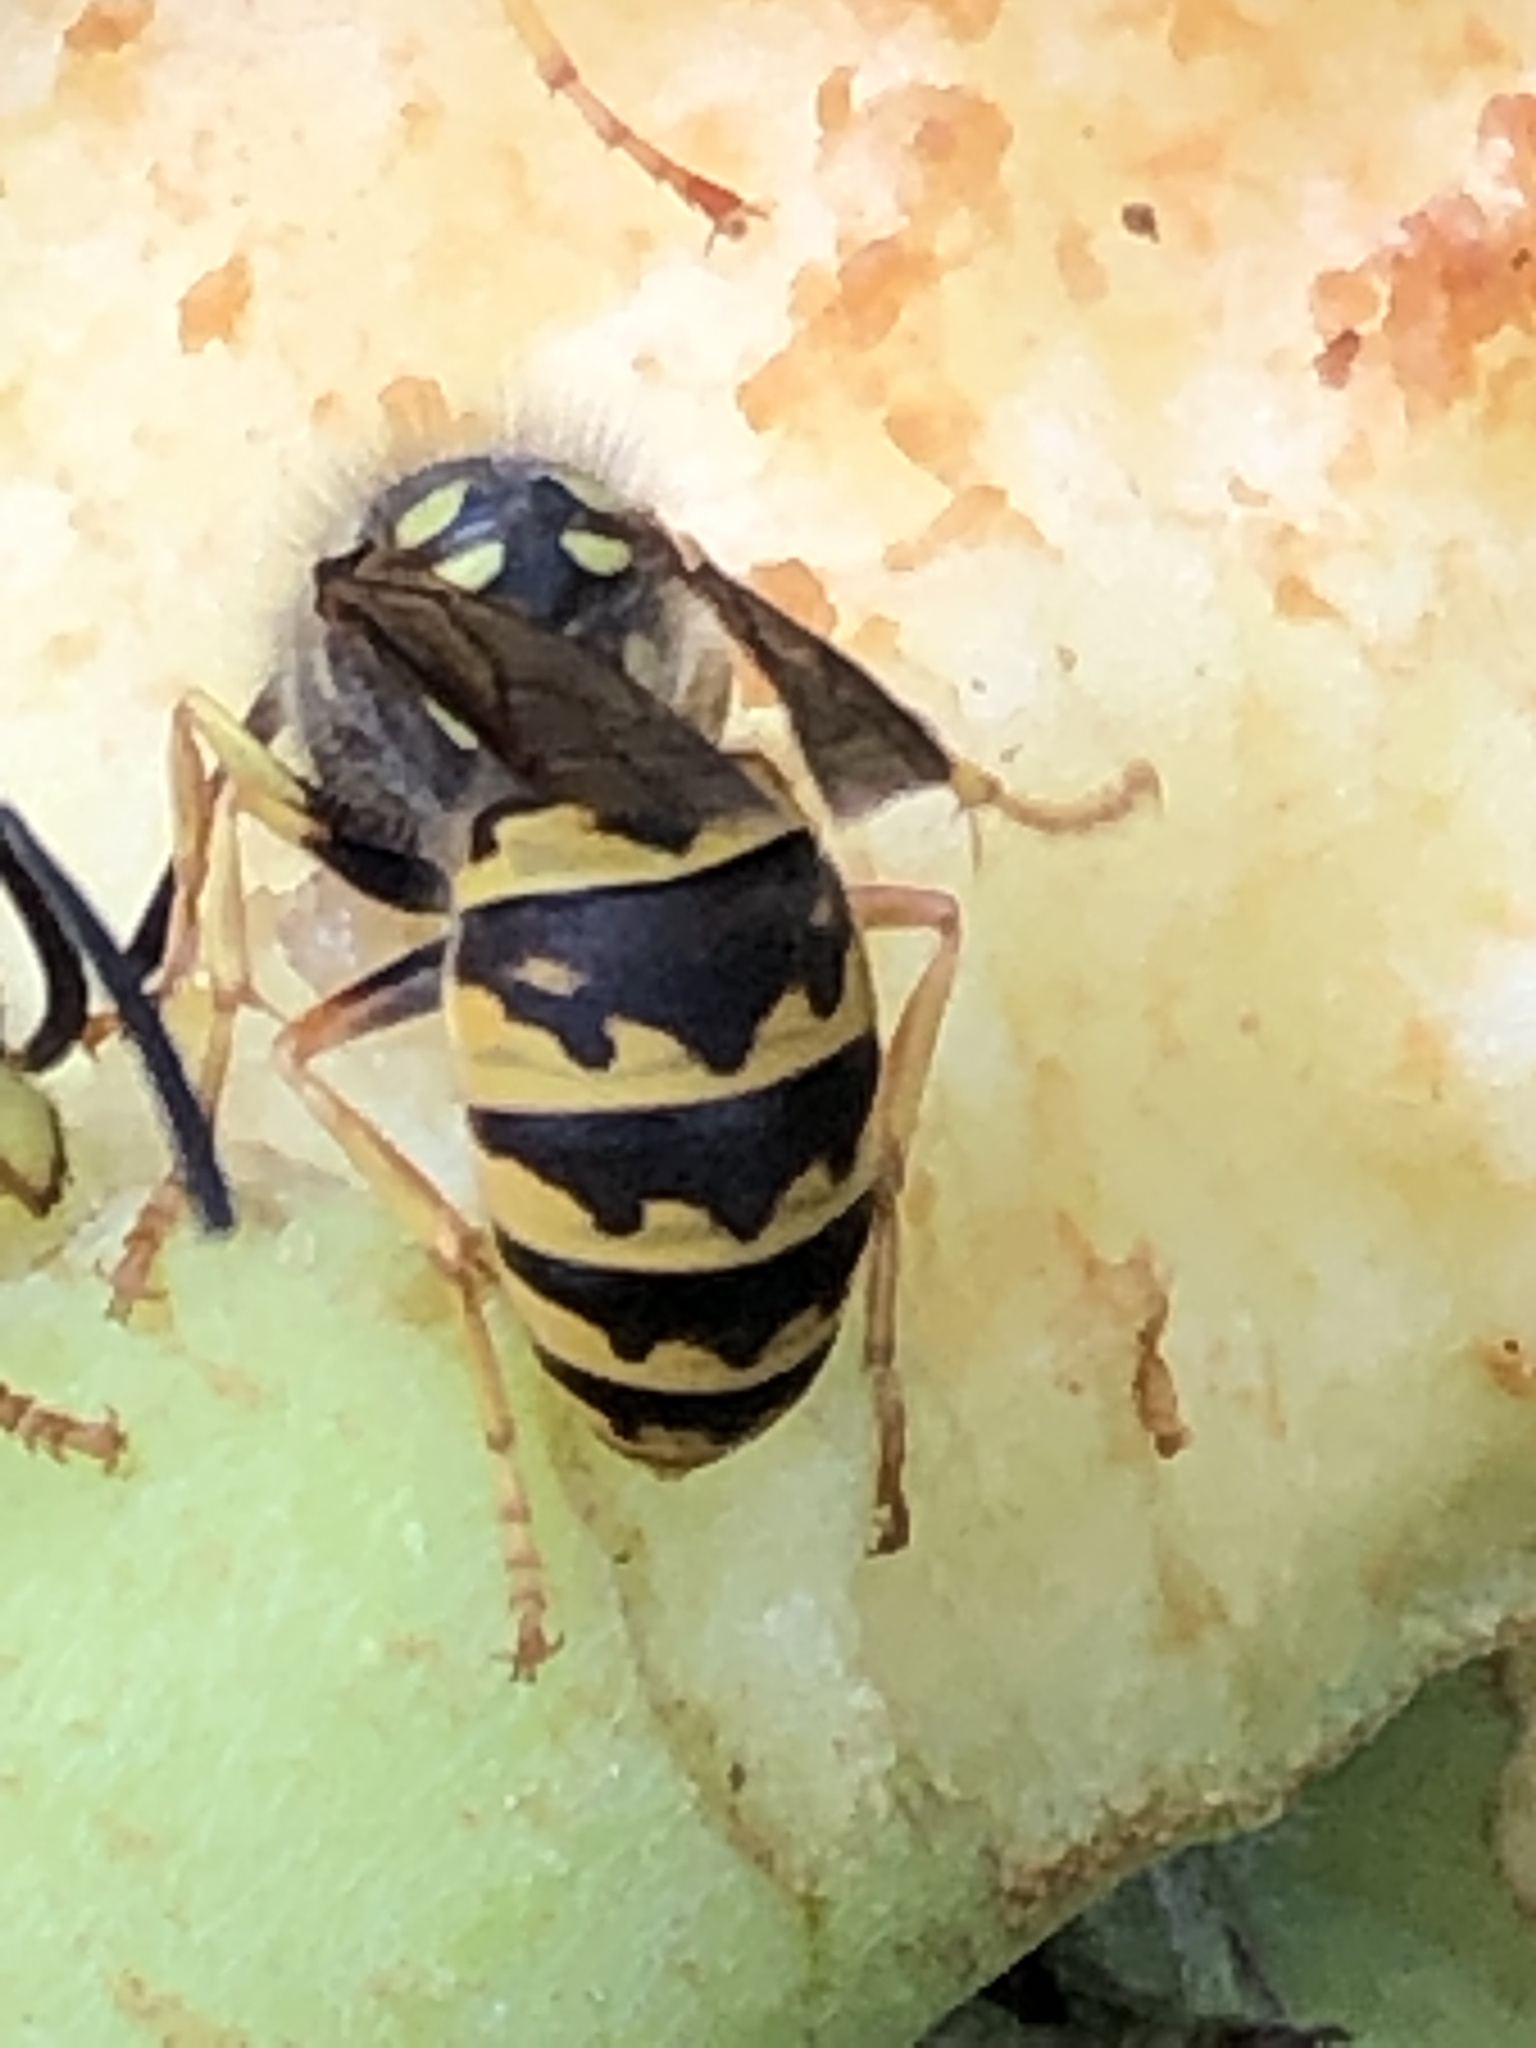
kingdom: Animalia
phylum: Arthropoda
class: Insecta
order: Hymenoptera
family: Vespidae
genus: Vespula
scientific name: Vespula germanica
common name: German wasp
